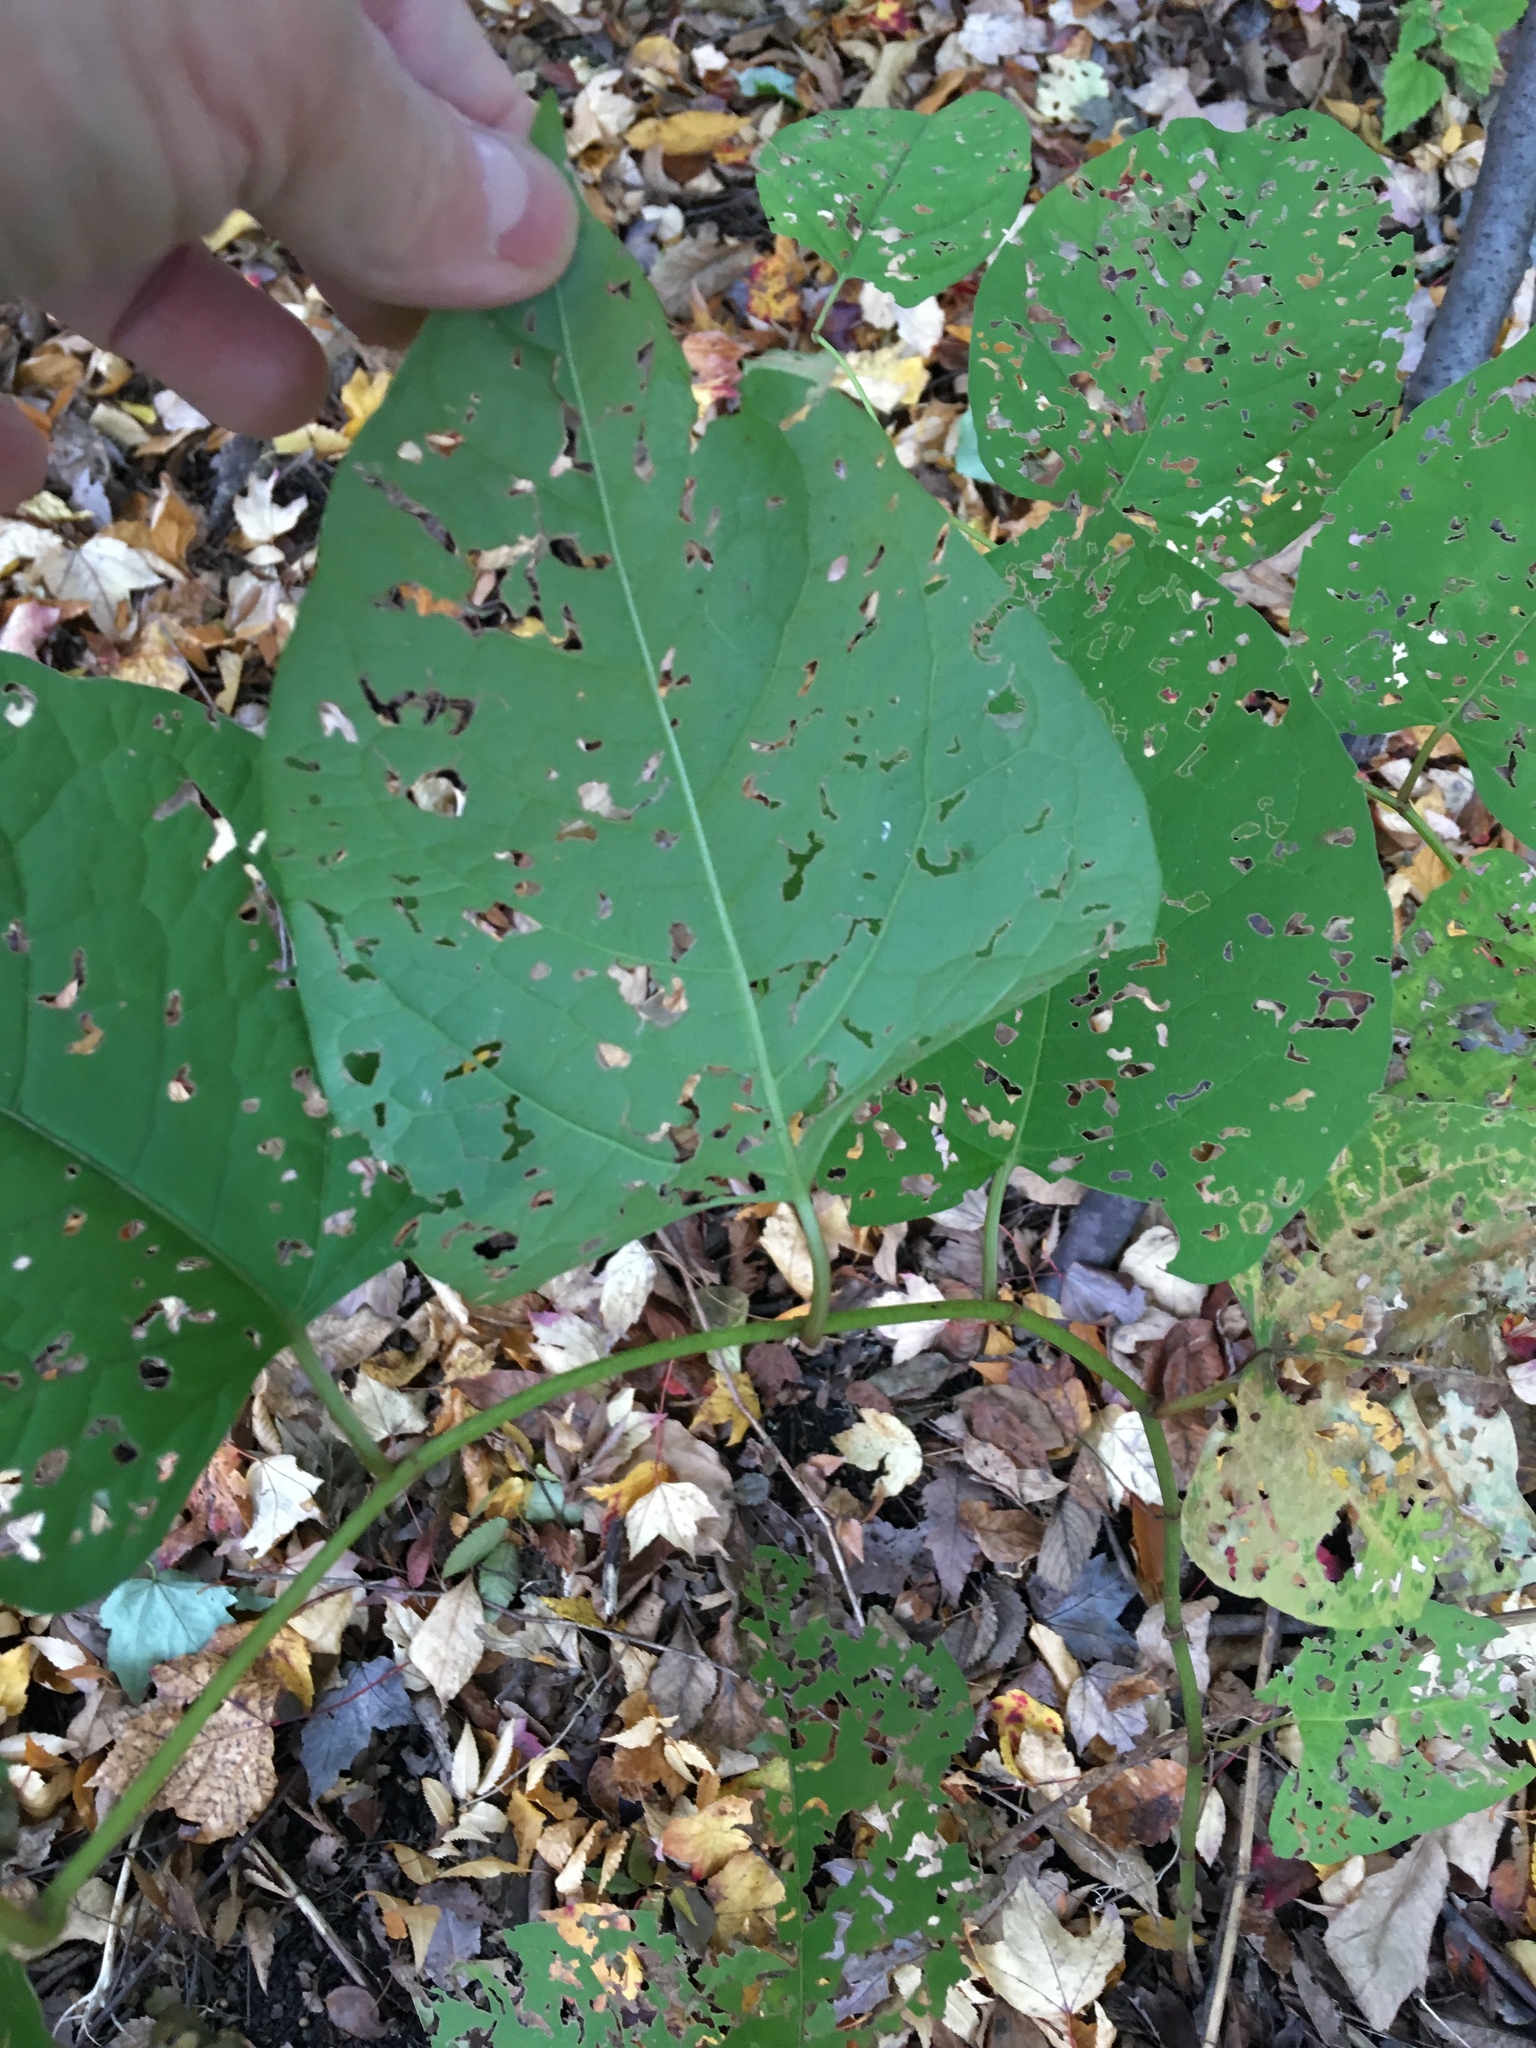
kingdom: Plantae
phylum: Tracheophyta
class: Magnoliopsida
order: Caryophyllales
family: Polygonaceae
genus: Reynoutria
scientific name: Reynoutria japonica
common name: Japanese knotweed
